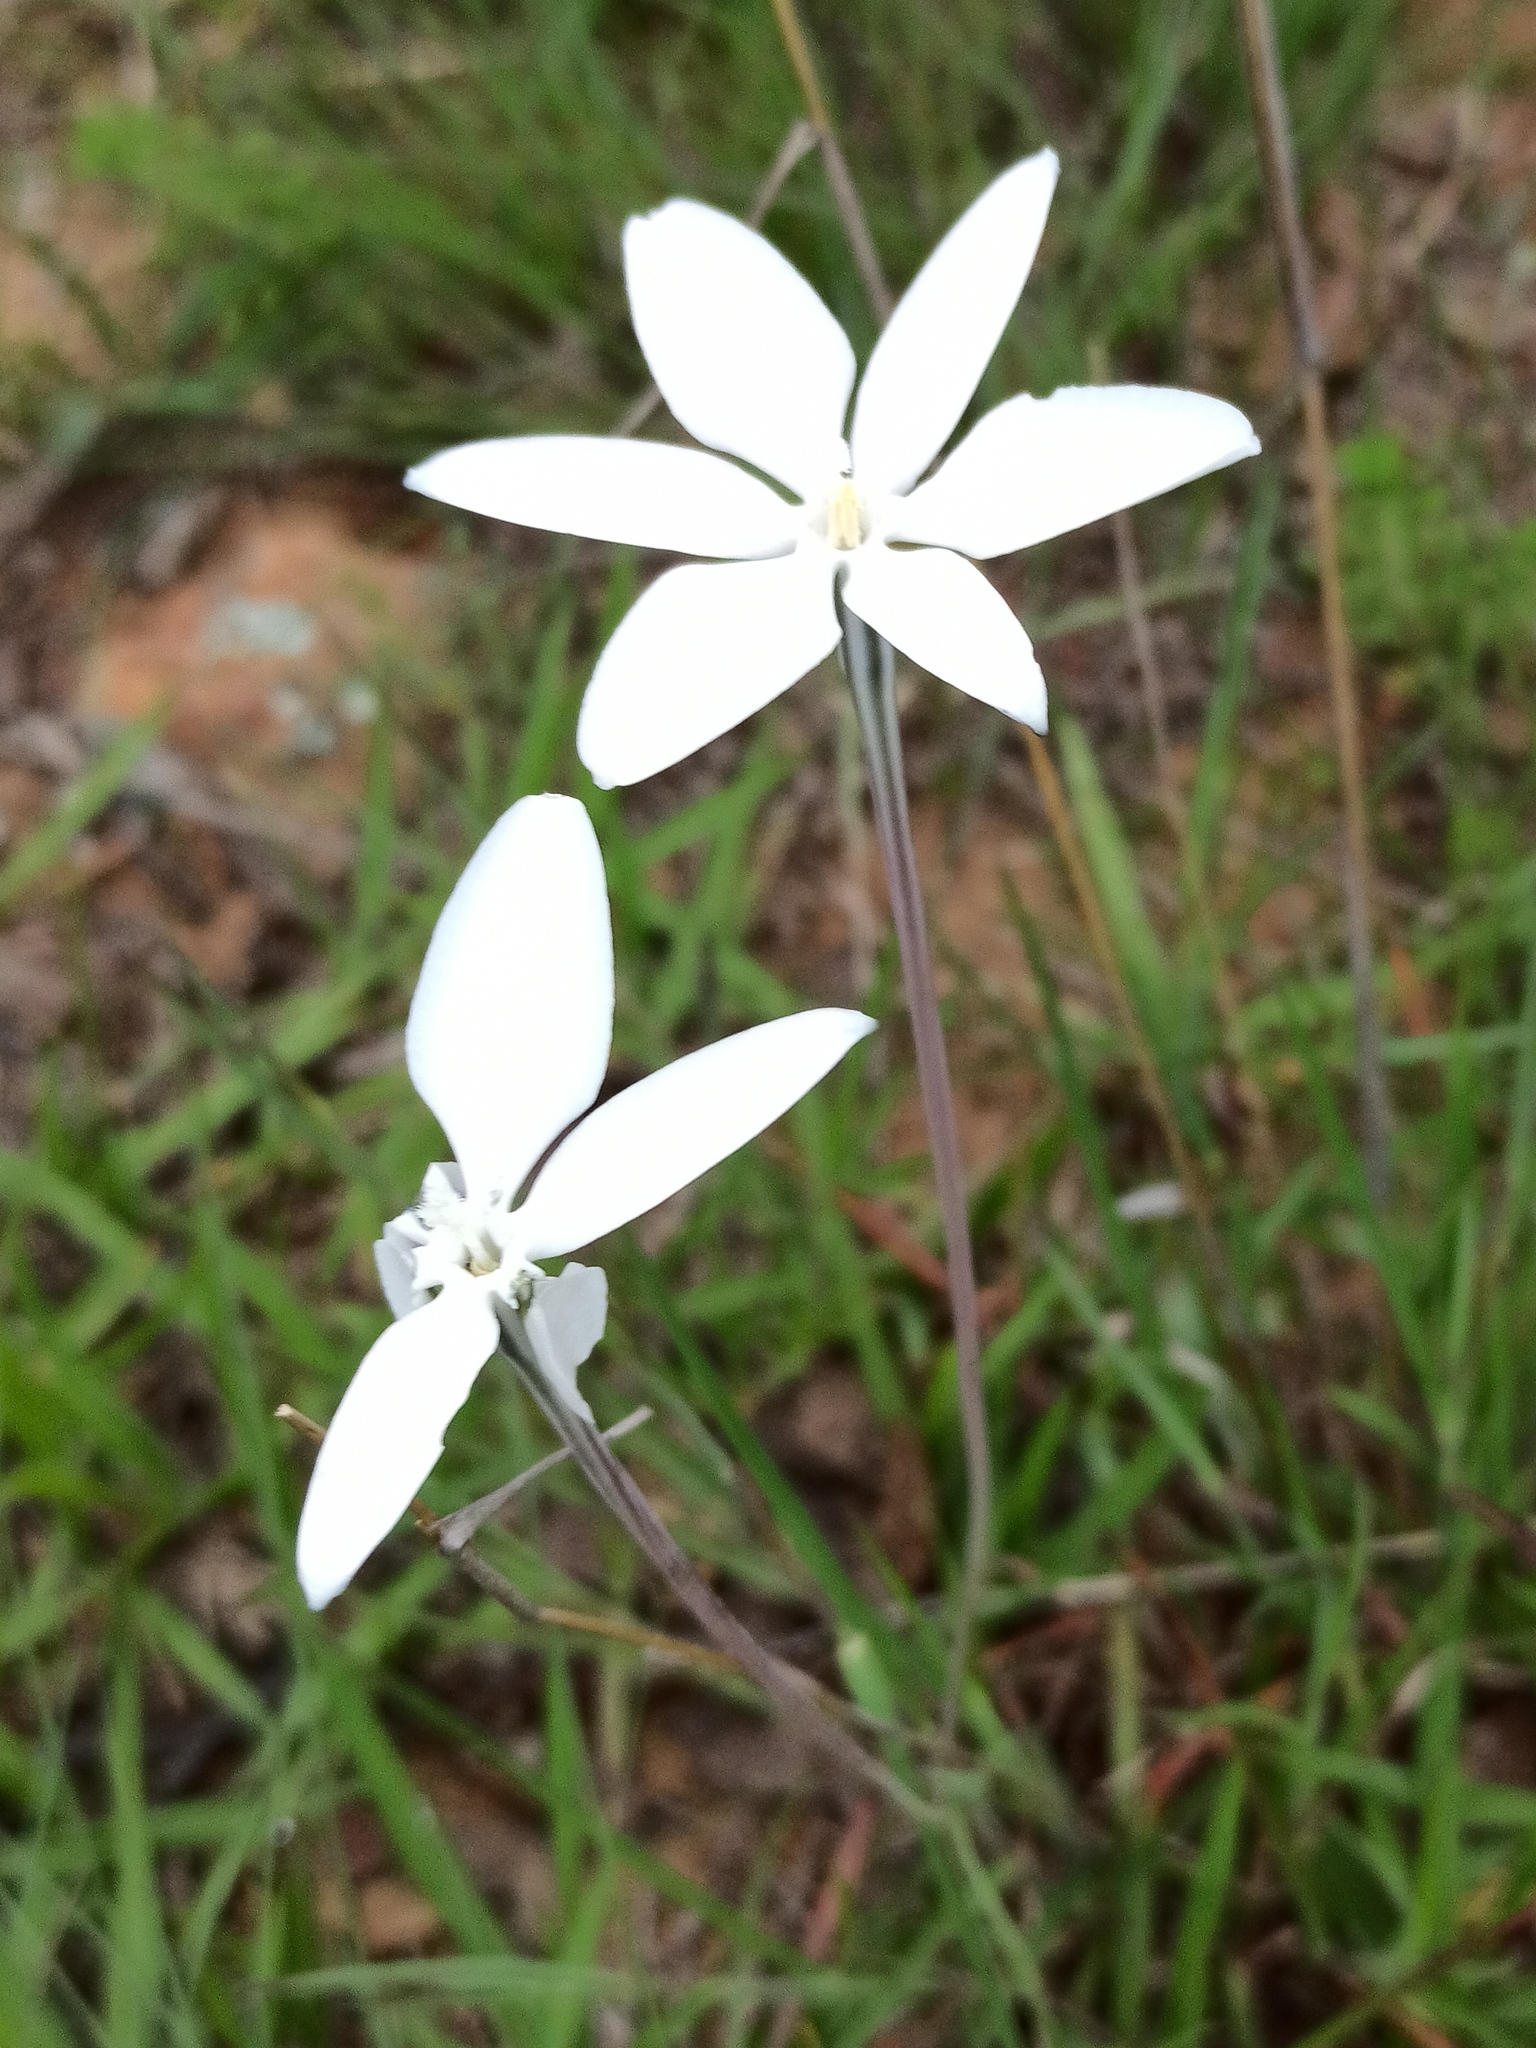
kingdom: Plantae
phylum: Tracheophyta
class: Liliopsida
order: Asparagales
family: Asparagaceae
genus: Milla
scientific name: Milla biflora
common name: Mexican-star
